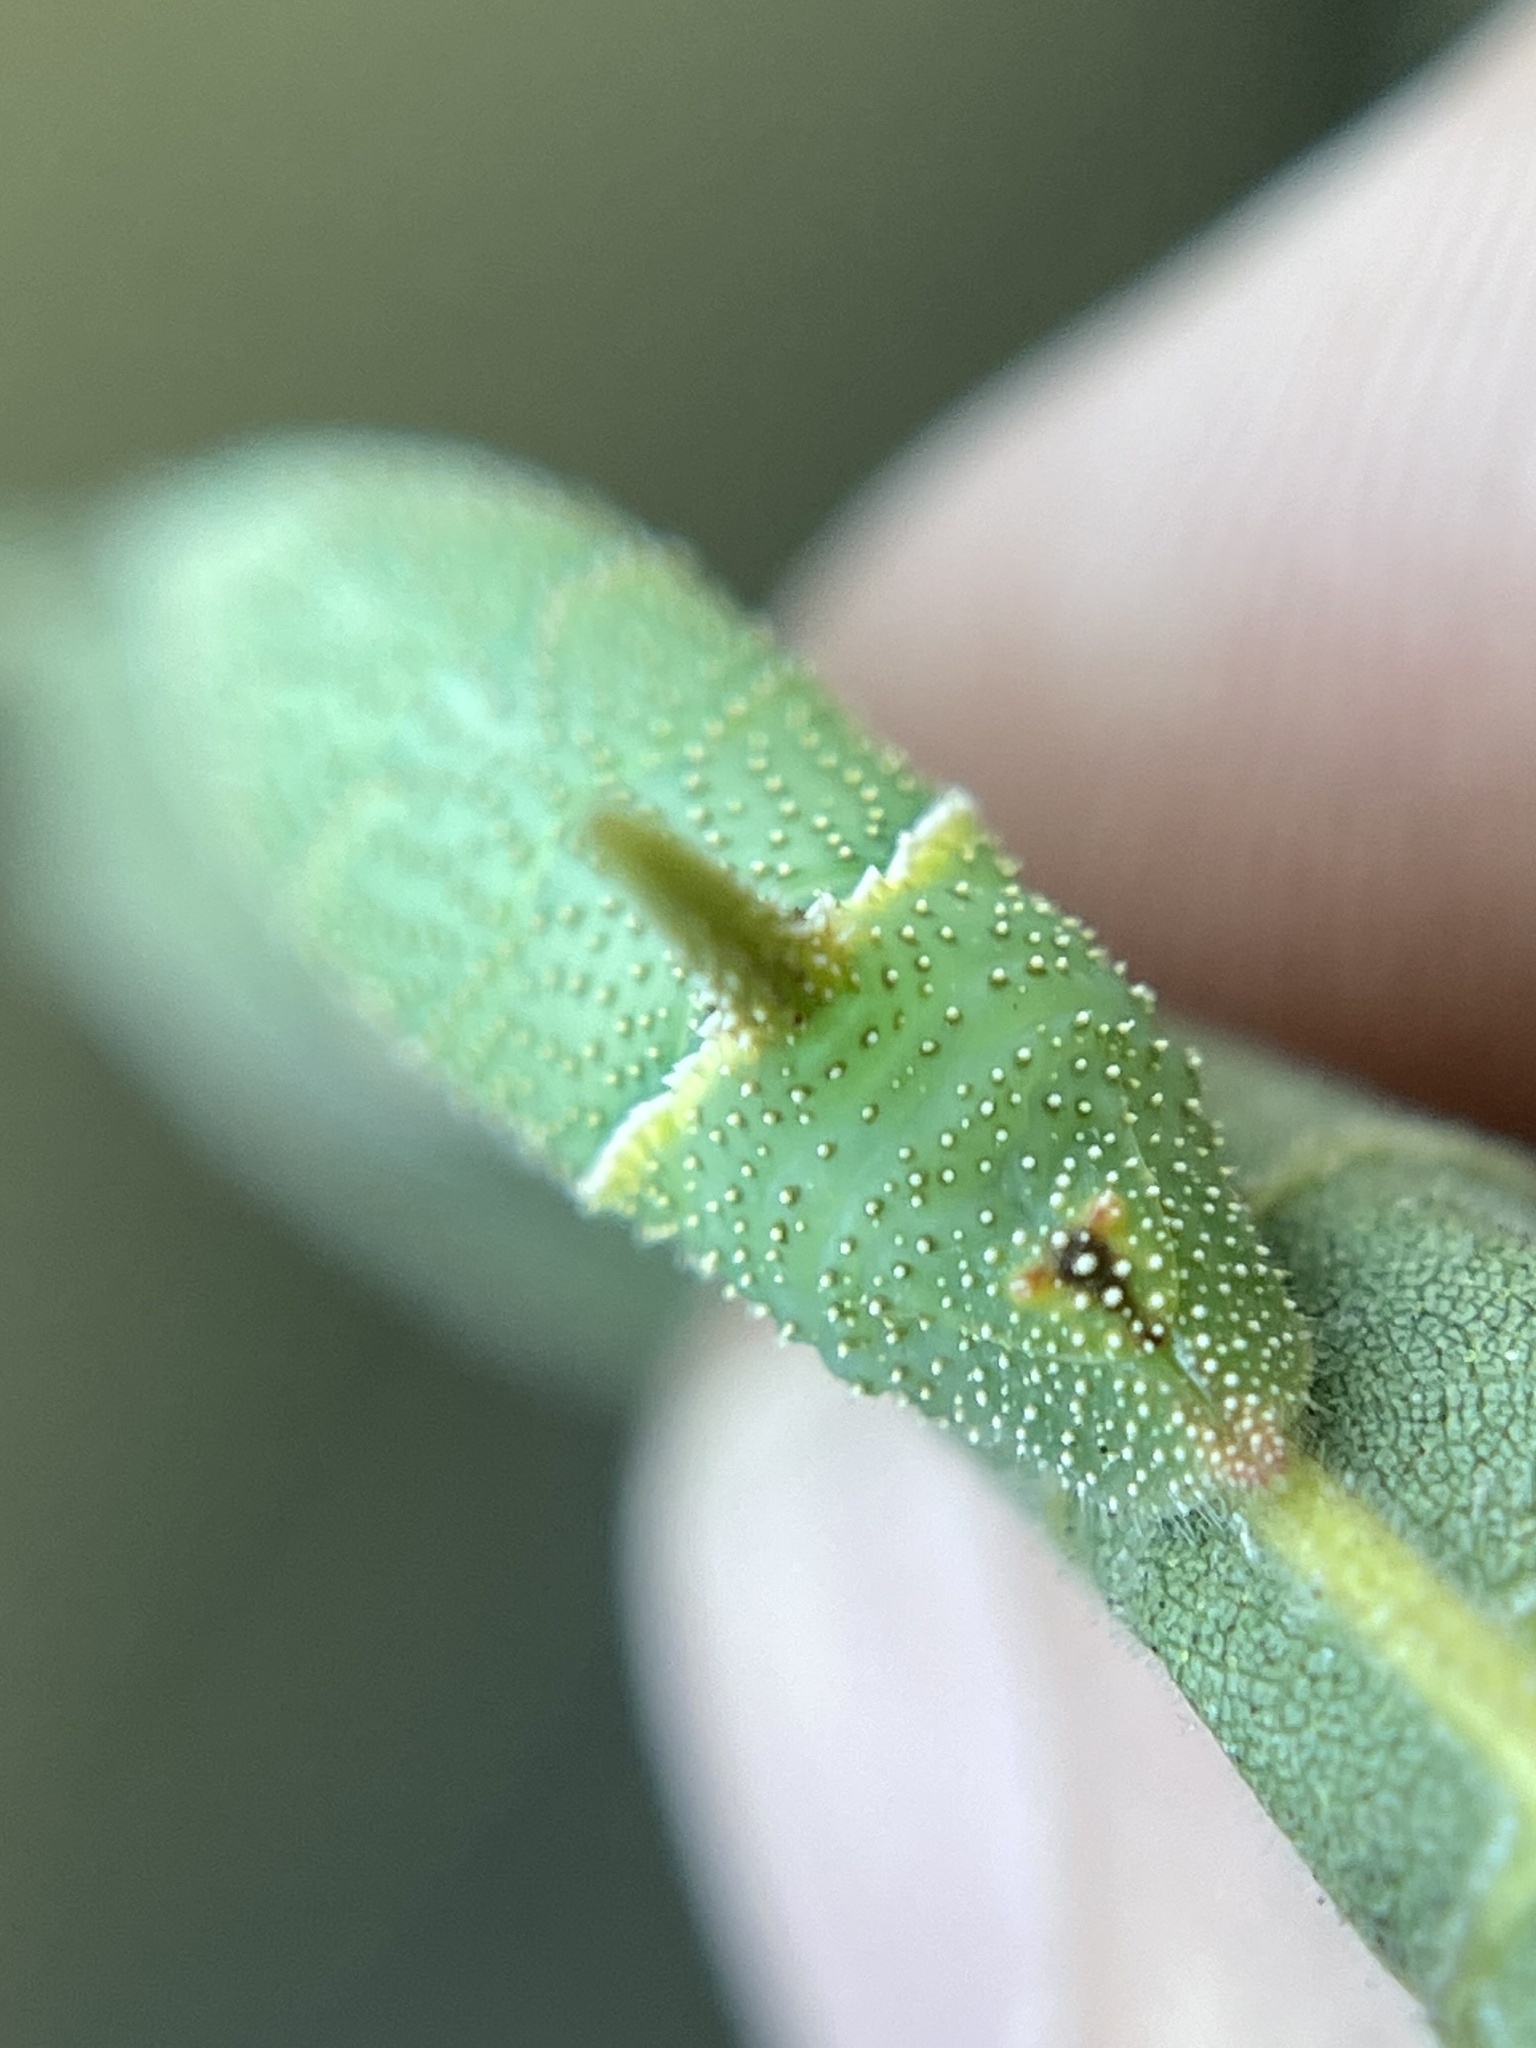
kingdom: Animalia
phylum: Arthropoda
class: Insecta
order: Lepidoptera
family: Sphingidae
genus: Amorpha
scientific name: Amorpha juglandis
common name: Walnut sphinx
